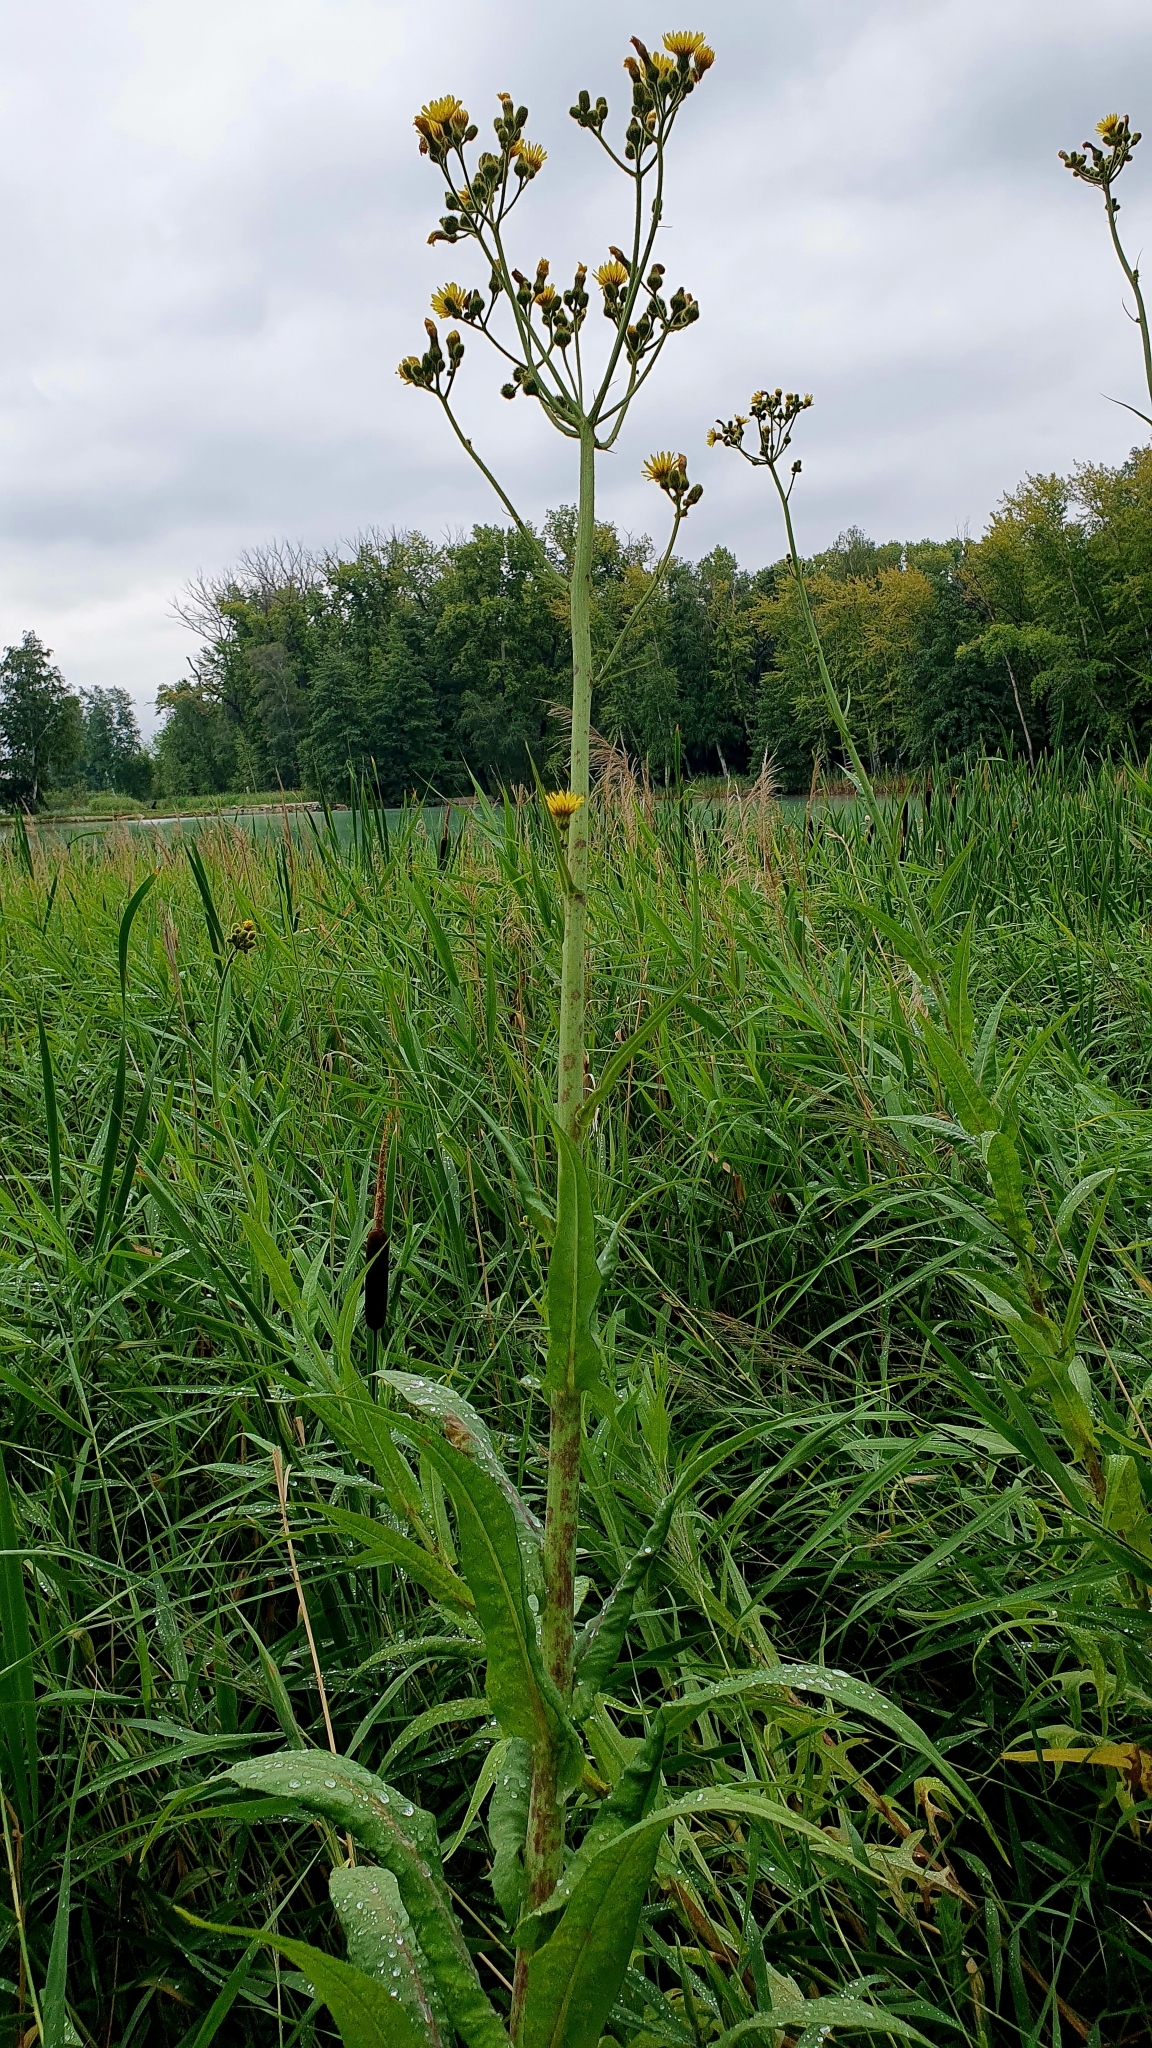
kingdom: Plantae
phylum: Tracheophyta
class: Magnoliopsida
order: Asterales
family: Asteraceae
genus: Sonchus
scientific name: Sonchus palustris
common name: Marsh sow-thistle
